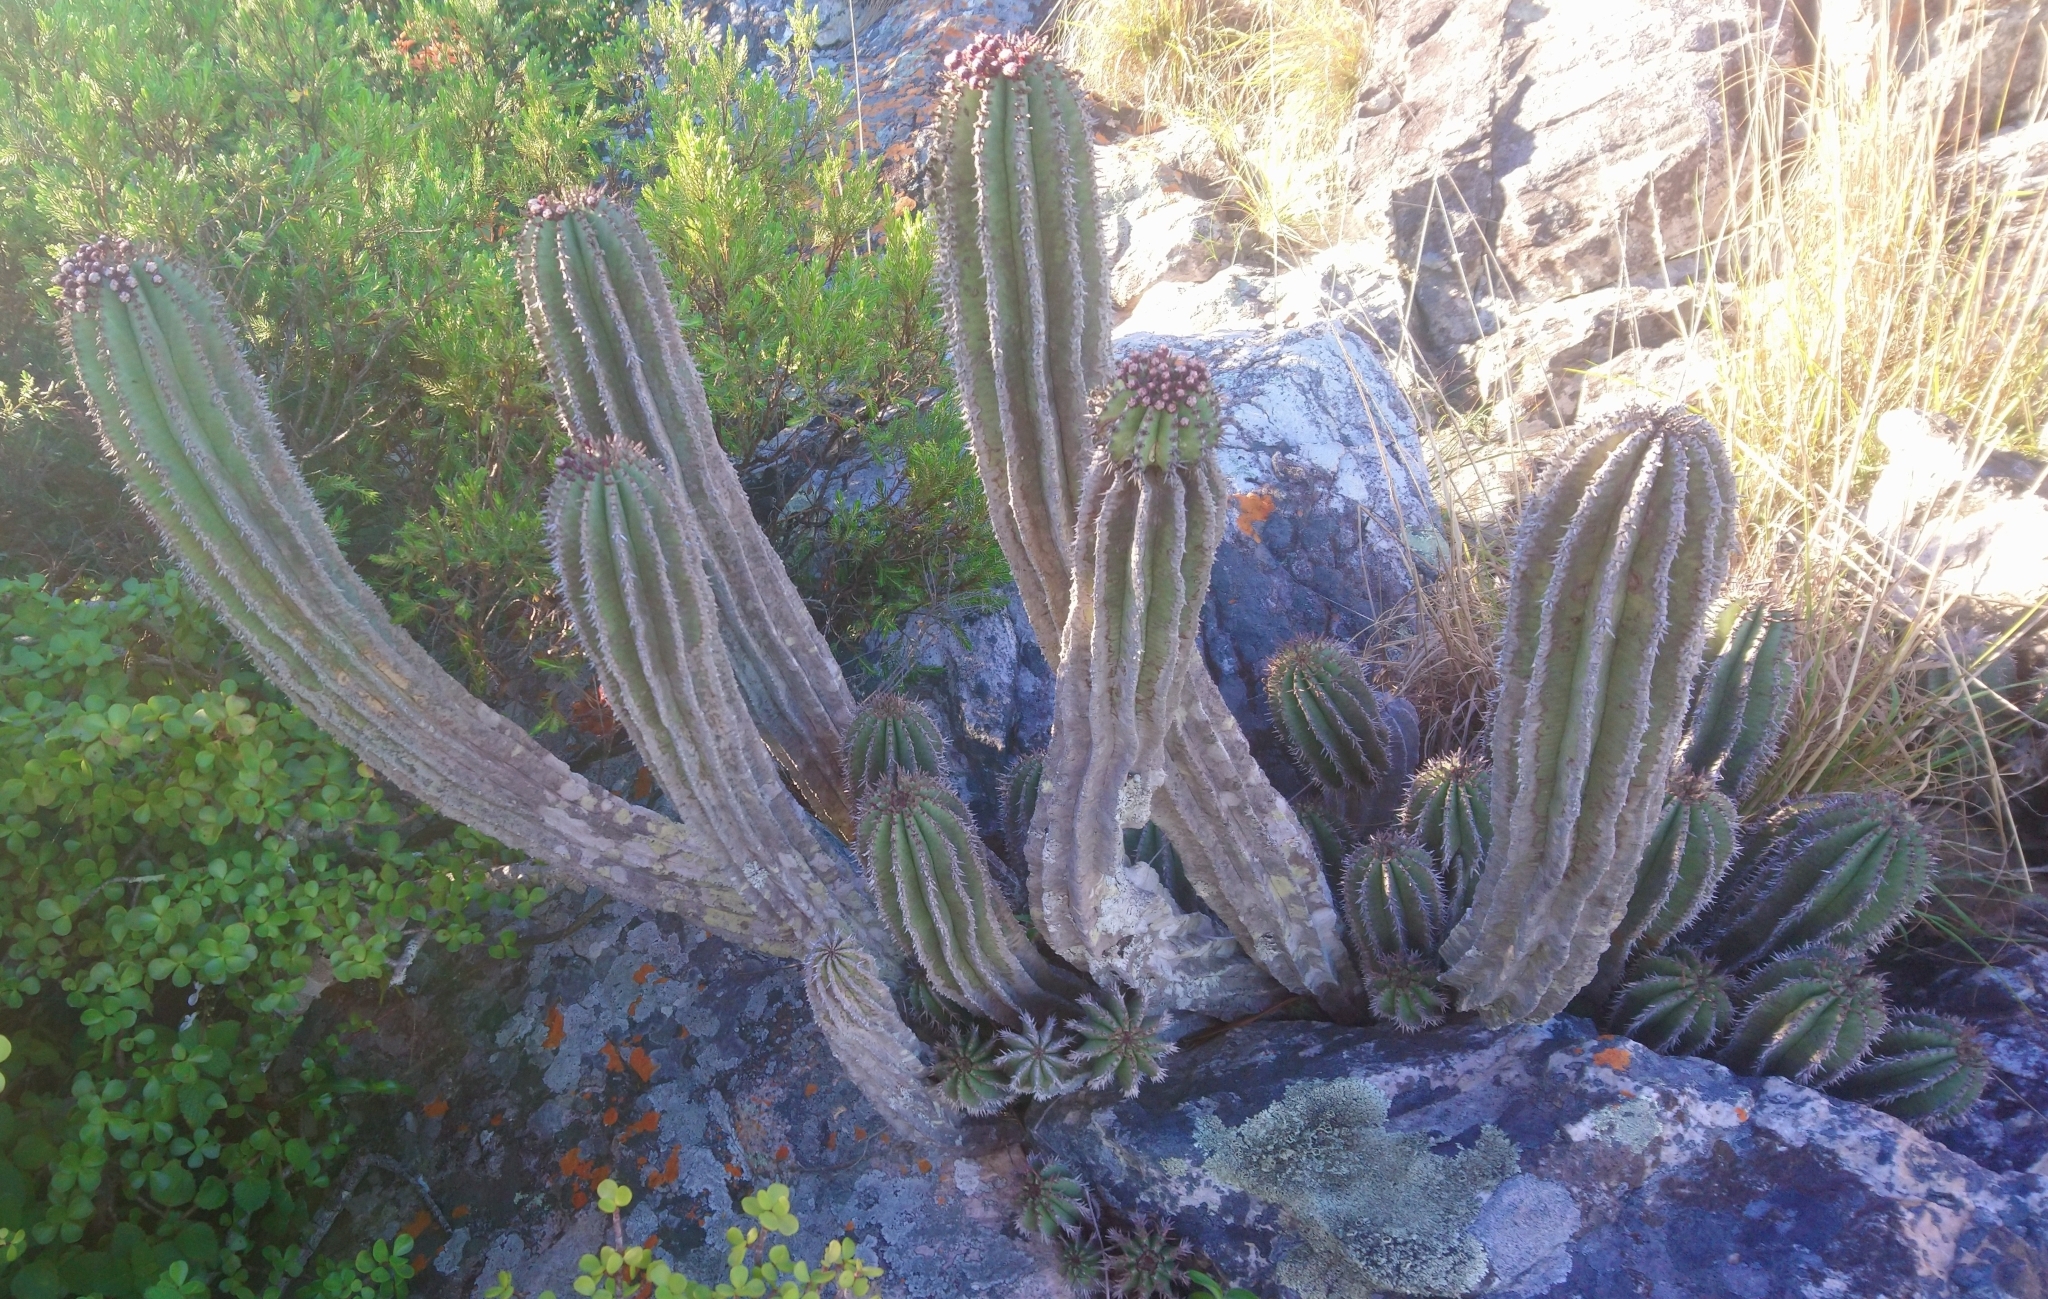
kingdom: Plantae
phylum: Tracheophyta
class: Magnoliopsida
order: Malpighiales
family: Euphorbiaceae
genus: Euphorbia
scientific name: Euphorbia polygona
